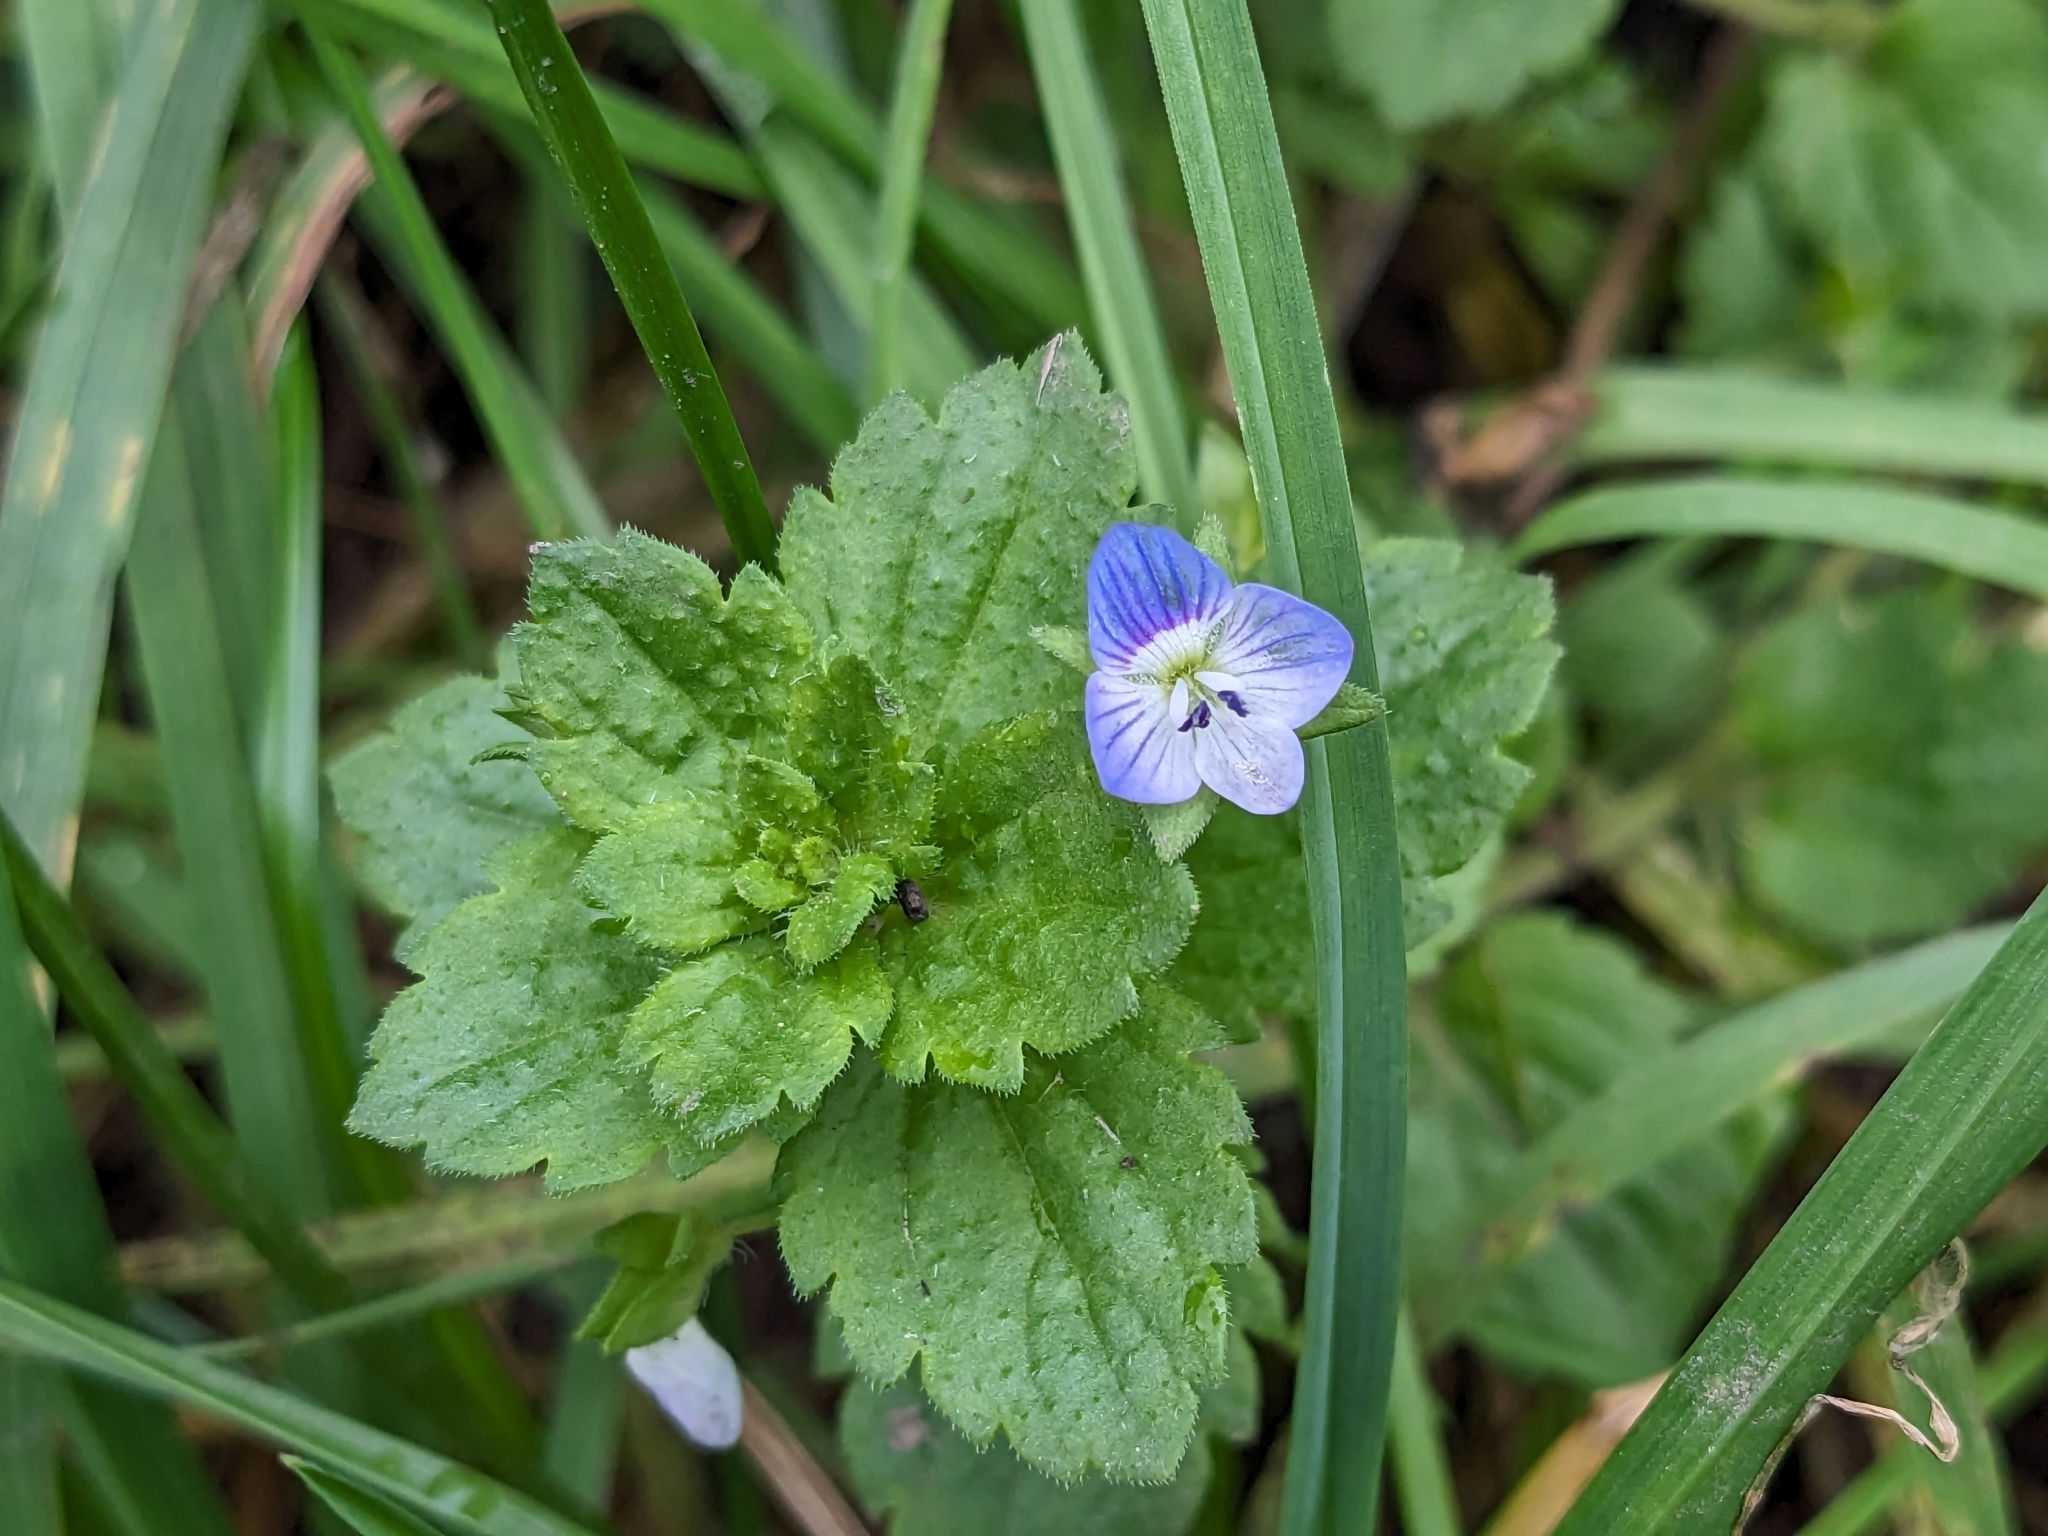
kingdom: Plantae
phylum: Tracheophyta
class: Magnoliopsida
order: Lamiales
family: Plantaginaceae
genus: Veronica
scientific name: Veronica persica
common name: Common field-speedwell
